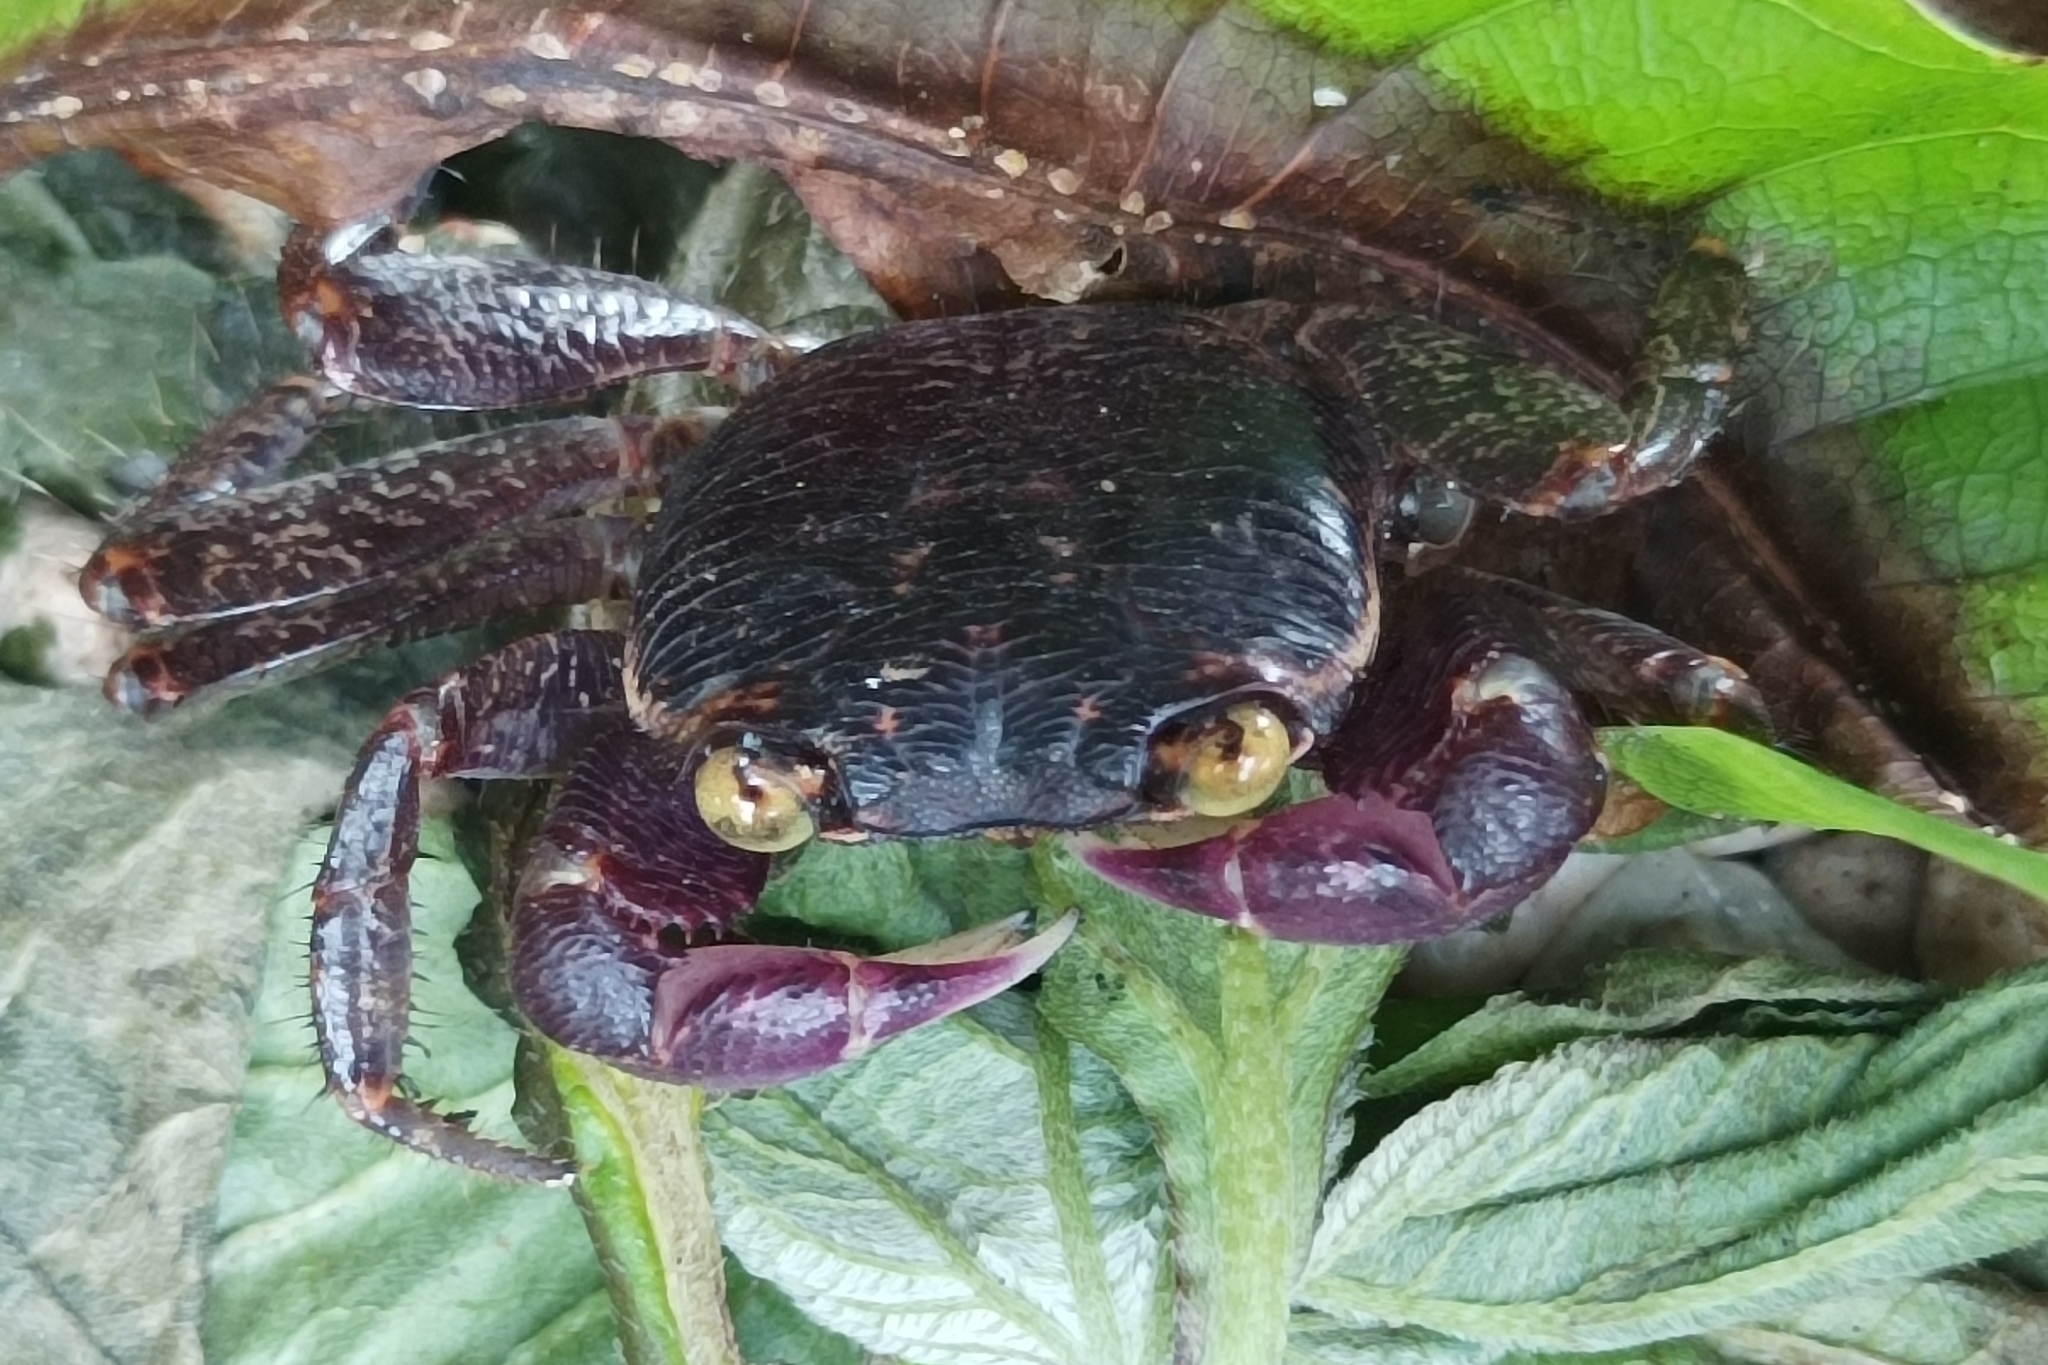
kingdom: Animalia
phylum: Arthropoda
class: Malacostraca
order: Decapoda
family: Grapsidae
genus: Geograpsus
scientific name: Geograpsus grayi
